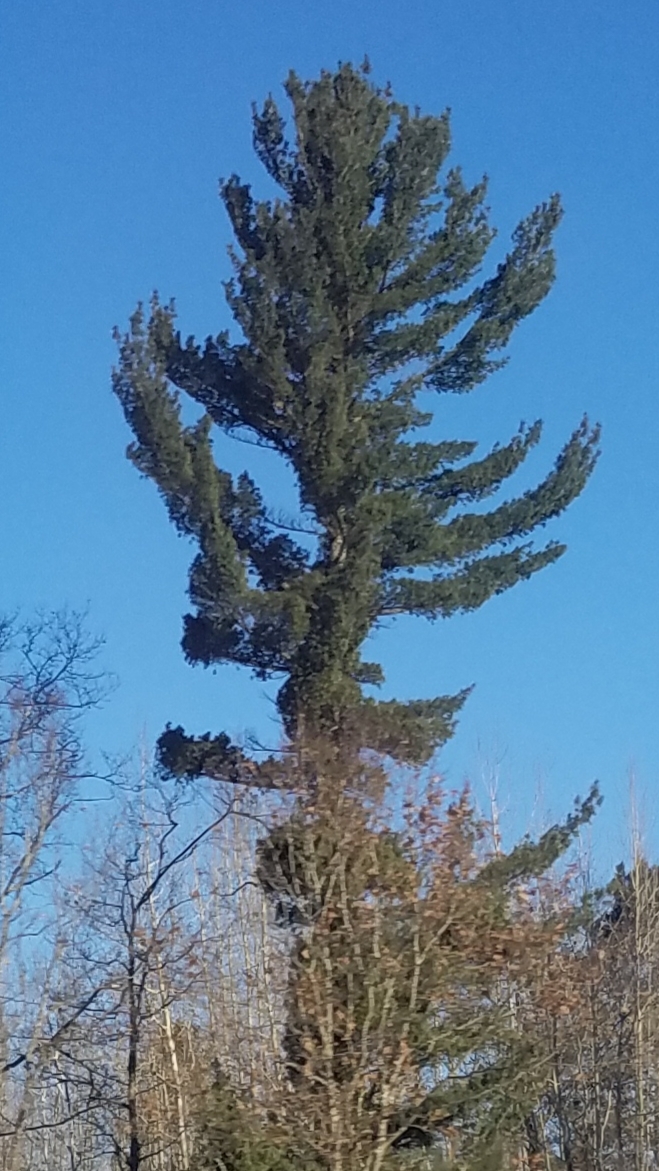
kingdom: Plantae
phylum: Tracheophyta
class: Pinopsida
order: Pinales
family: Pinaceae
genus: Pinus
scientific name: Pinus strobus
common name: Weymouth pine
